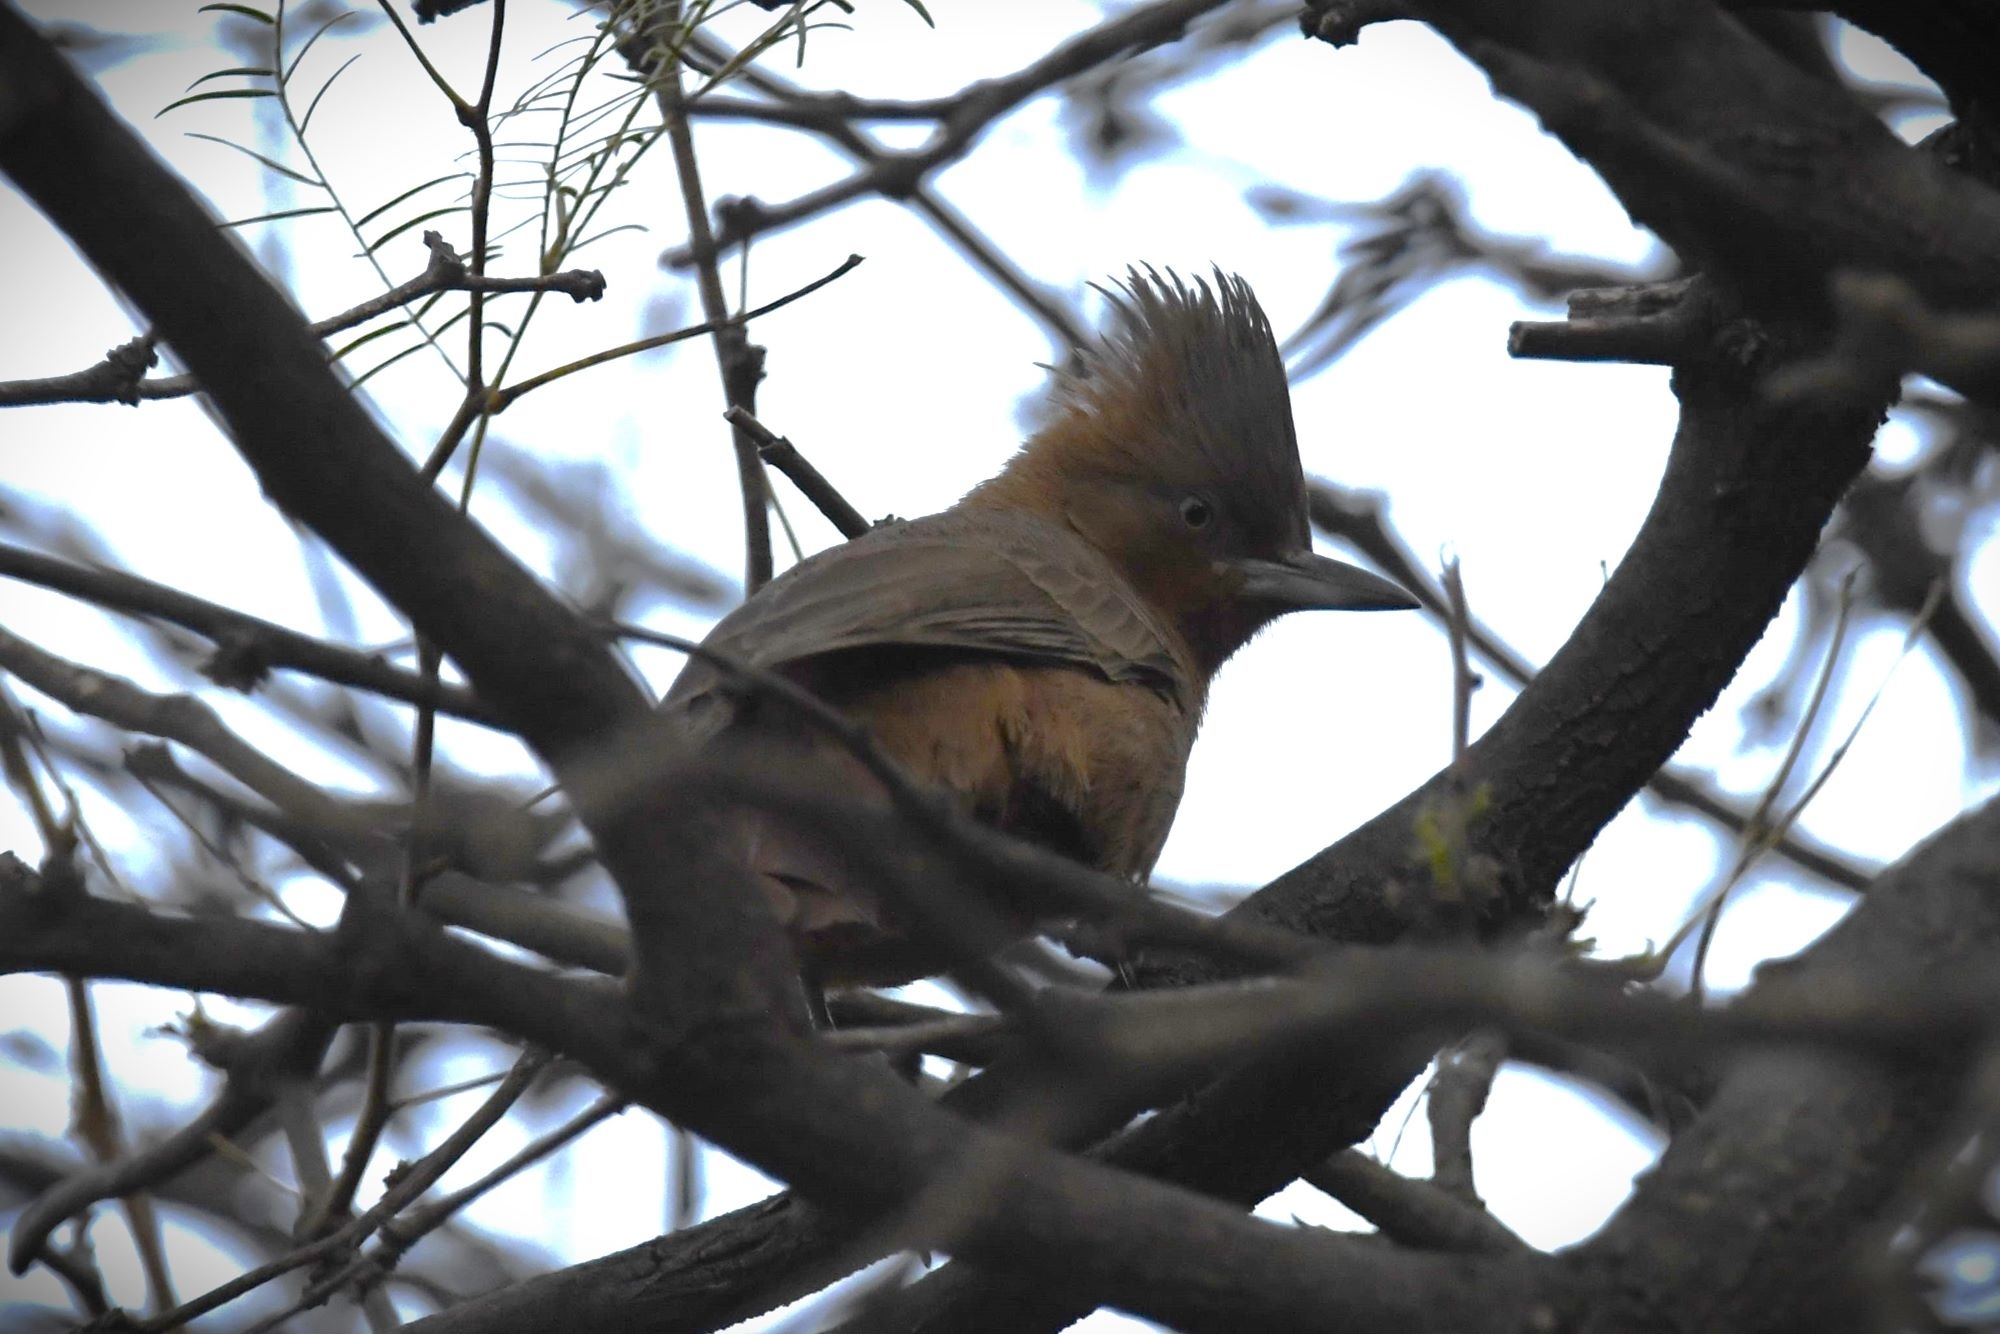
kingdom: Animalia
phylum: Chordata
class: Aves
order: Passeriformes
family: Furnariidae
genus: Pseudoseisura
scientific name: Pseudoseisura lophotes
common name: Brown cacholote
